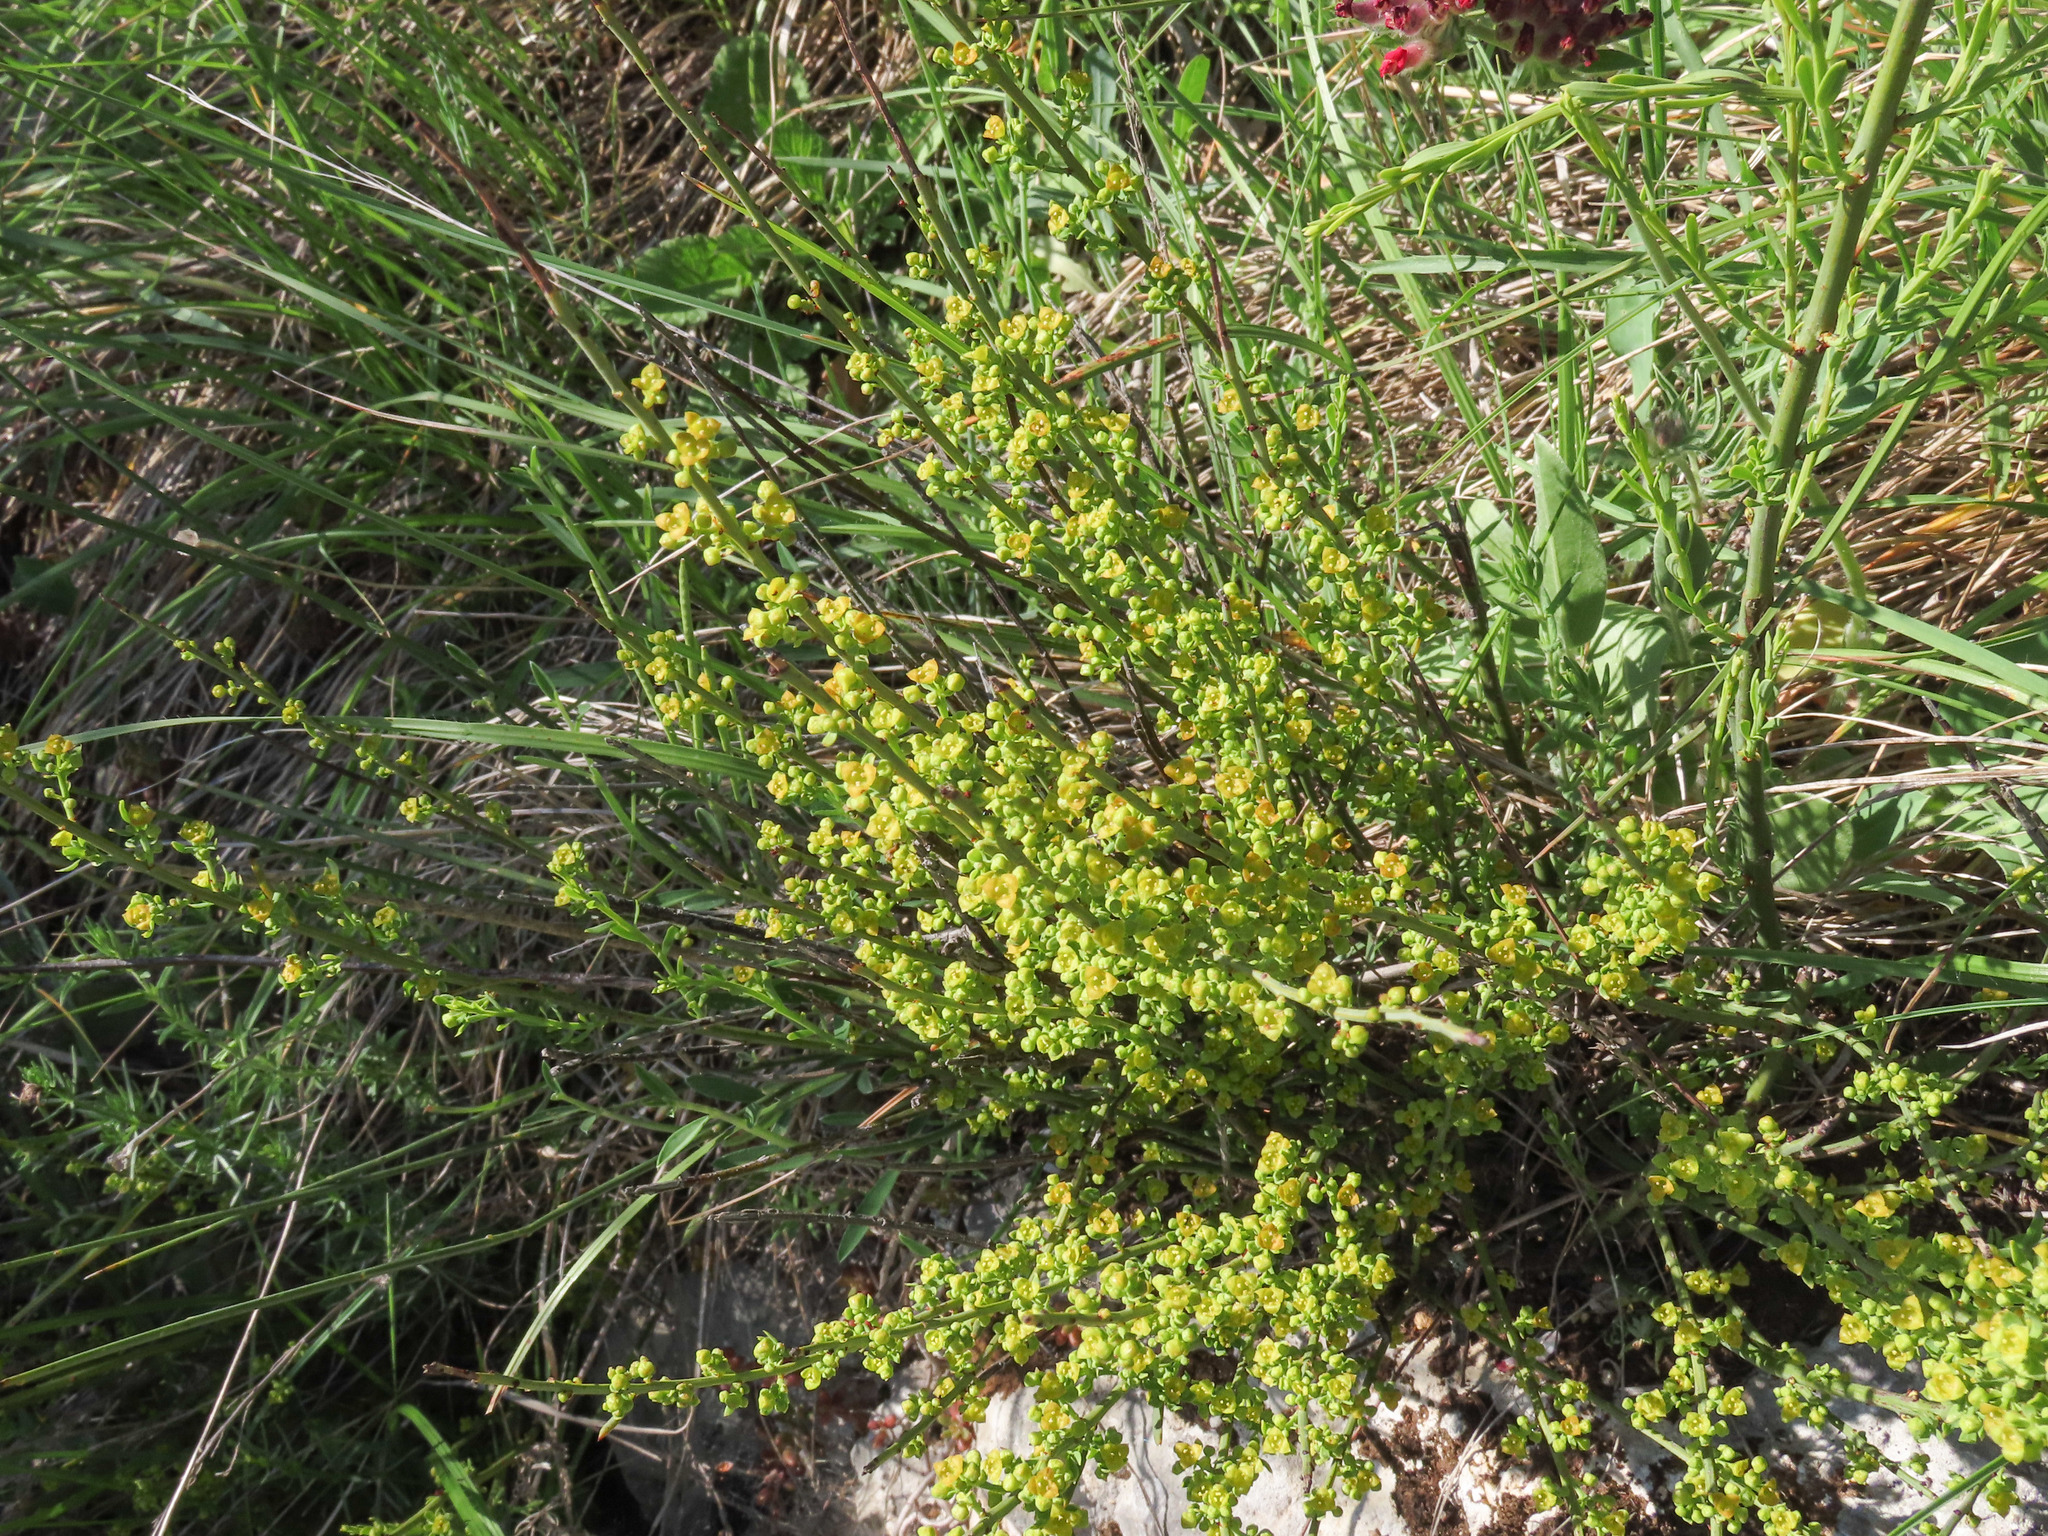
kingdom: Plantae
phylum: Tracheophyta
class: Magnoliopsida
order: Santalales
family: Santalaceae
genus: Osyris
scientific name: Osyris alba
